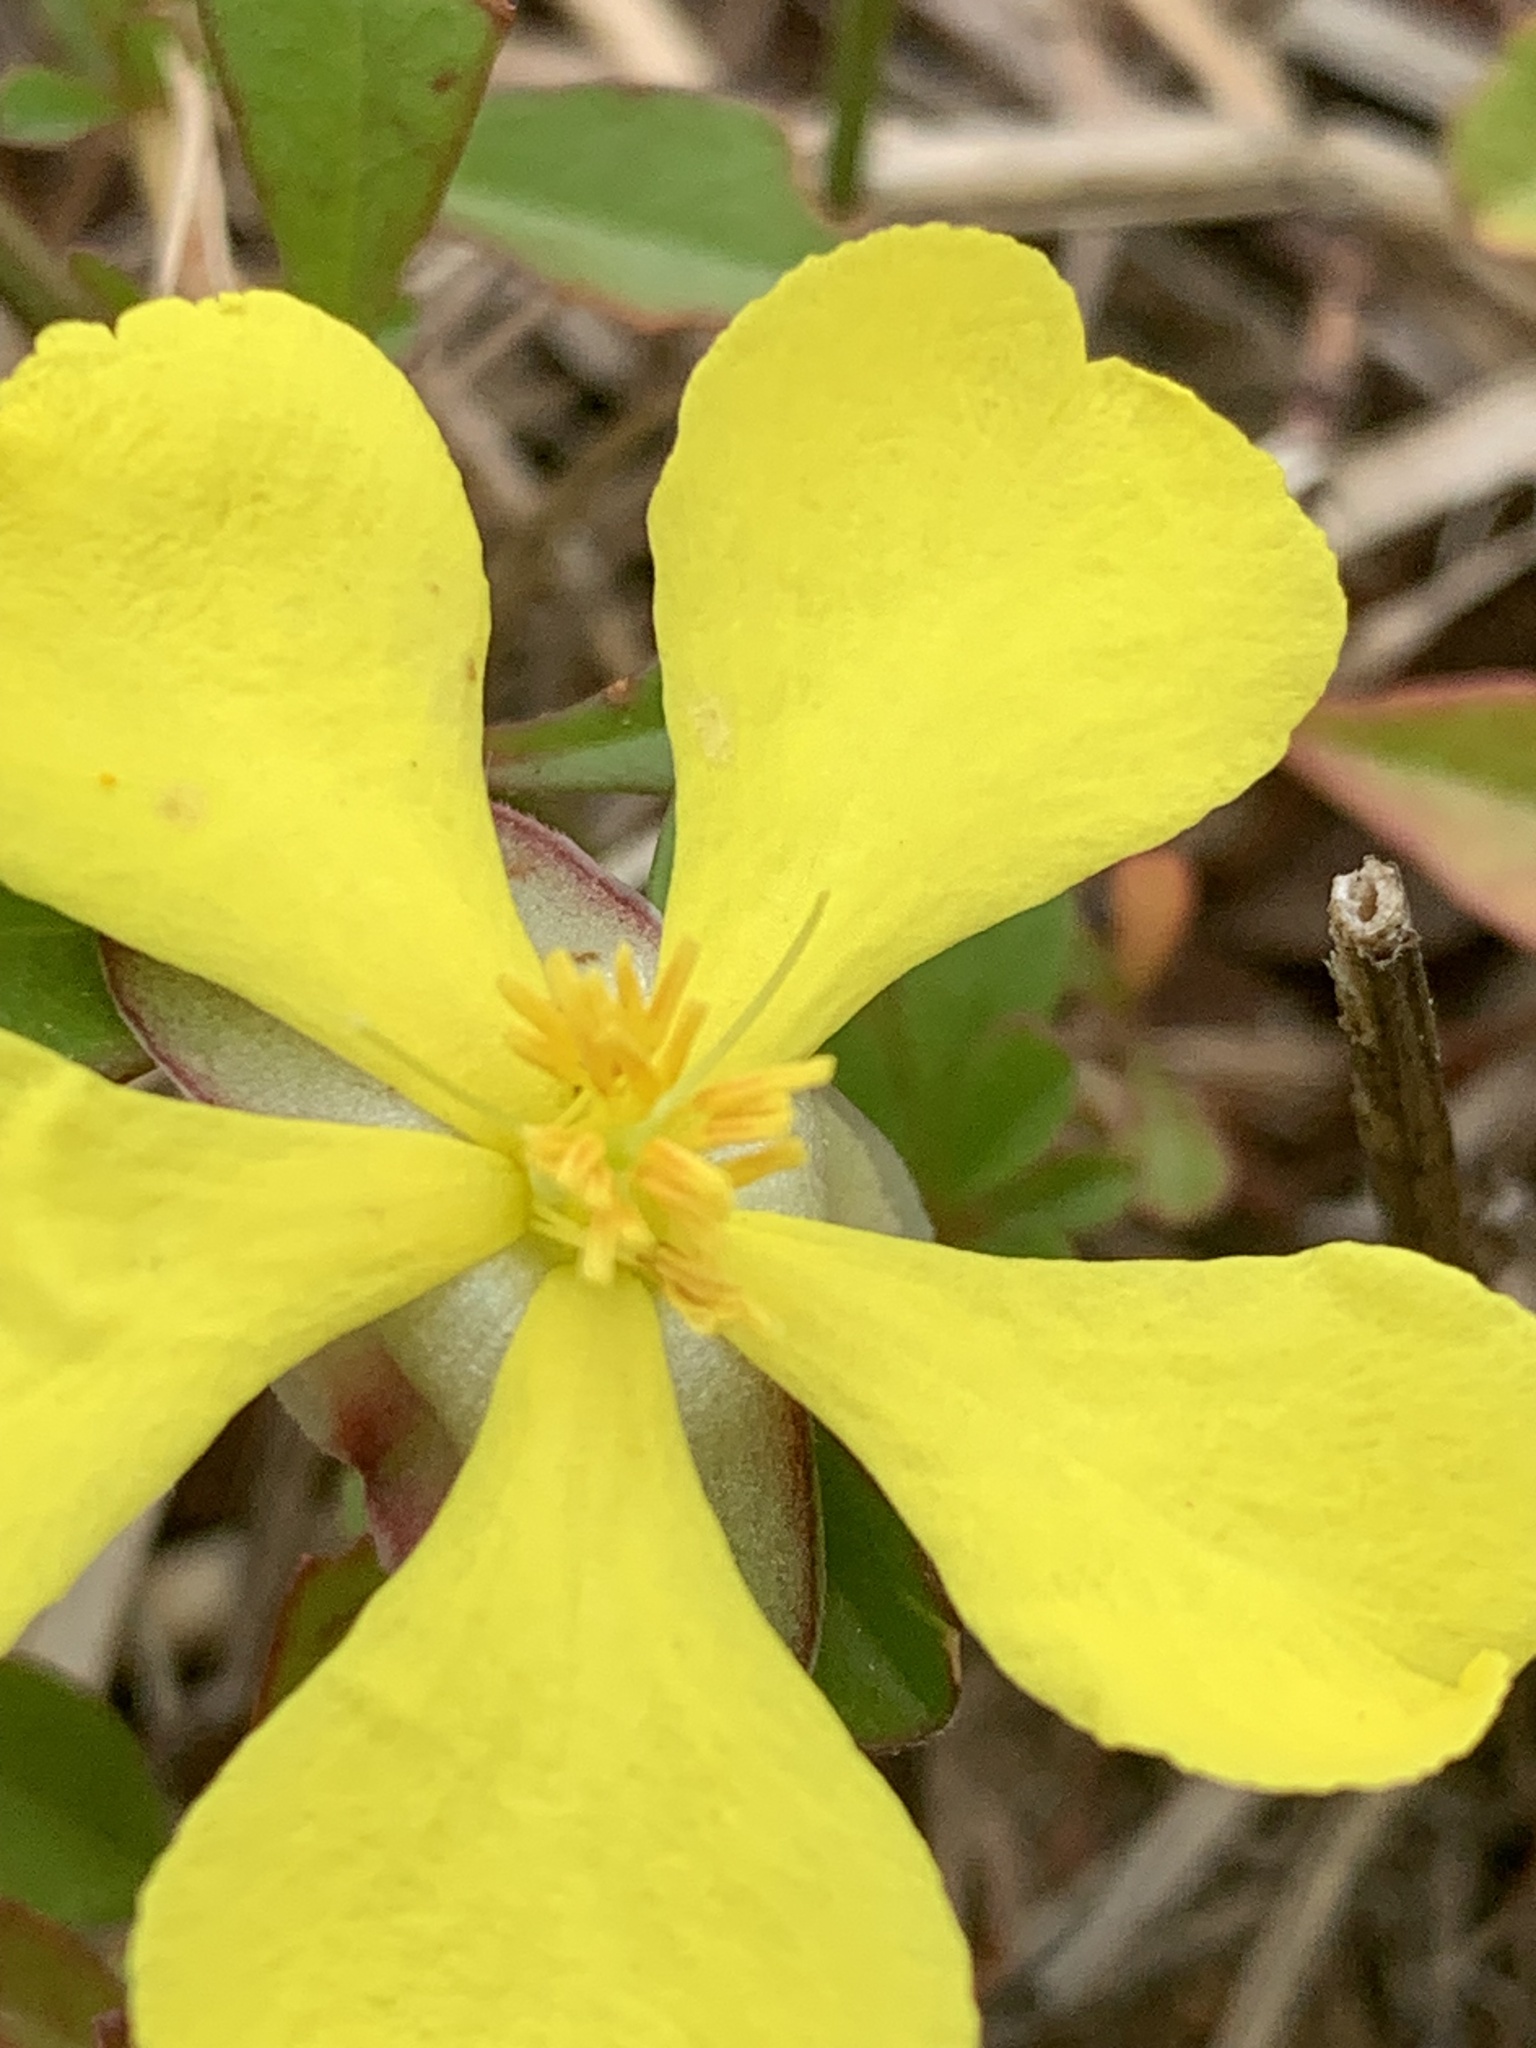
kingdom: Plantae
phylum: Tracheophyta
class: Magnoliopsida
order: Dilleniales
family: Dilleniaceae
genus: Hibbertia
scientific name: Hibbertia diffusa
